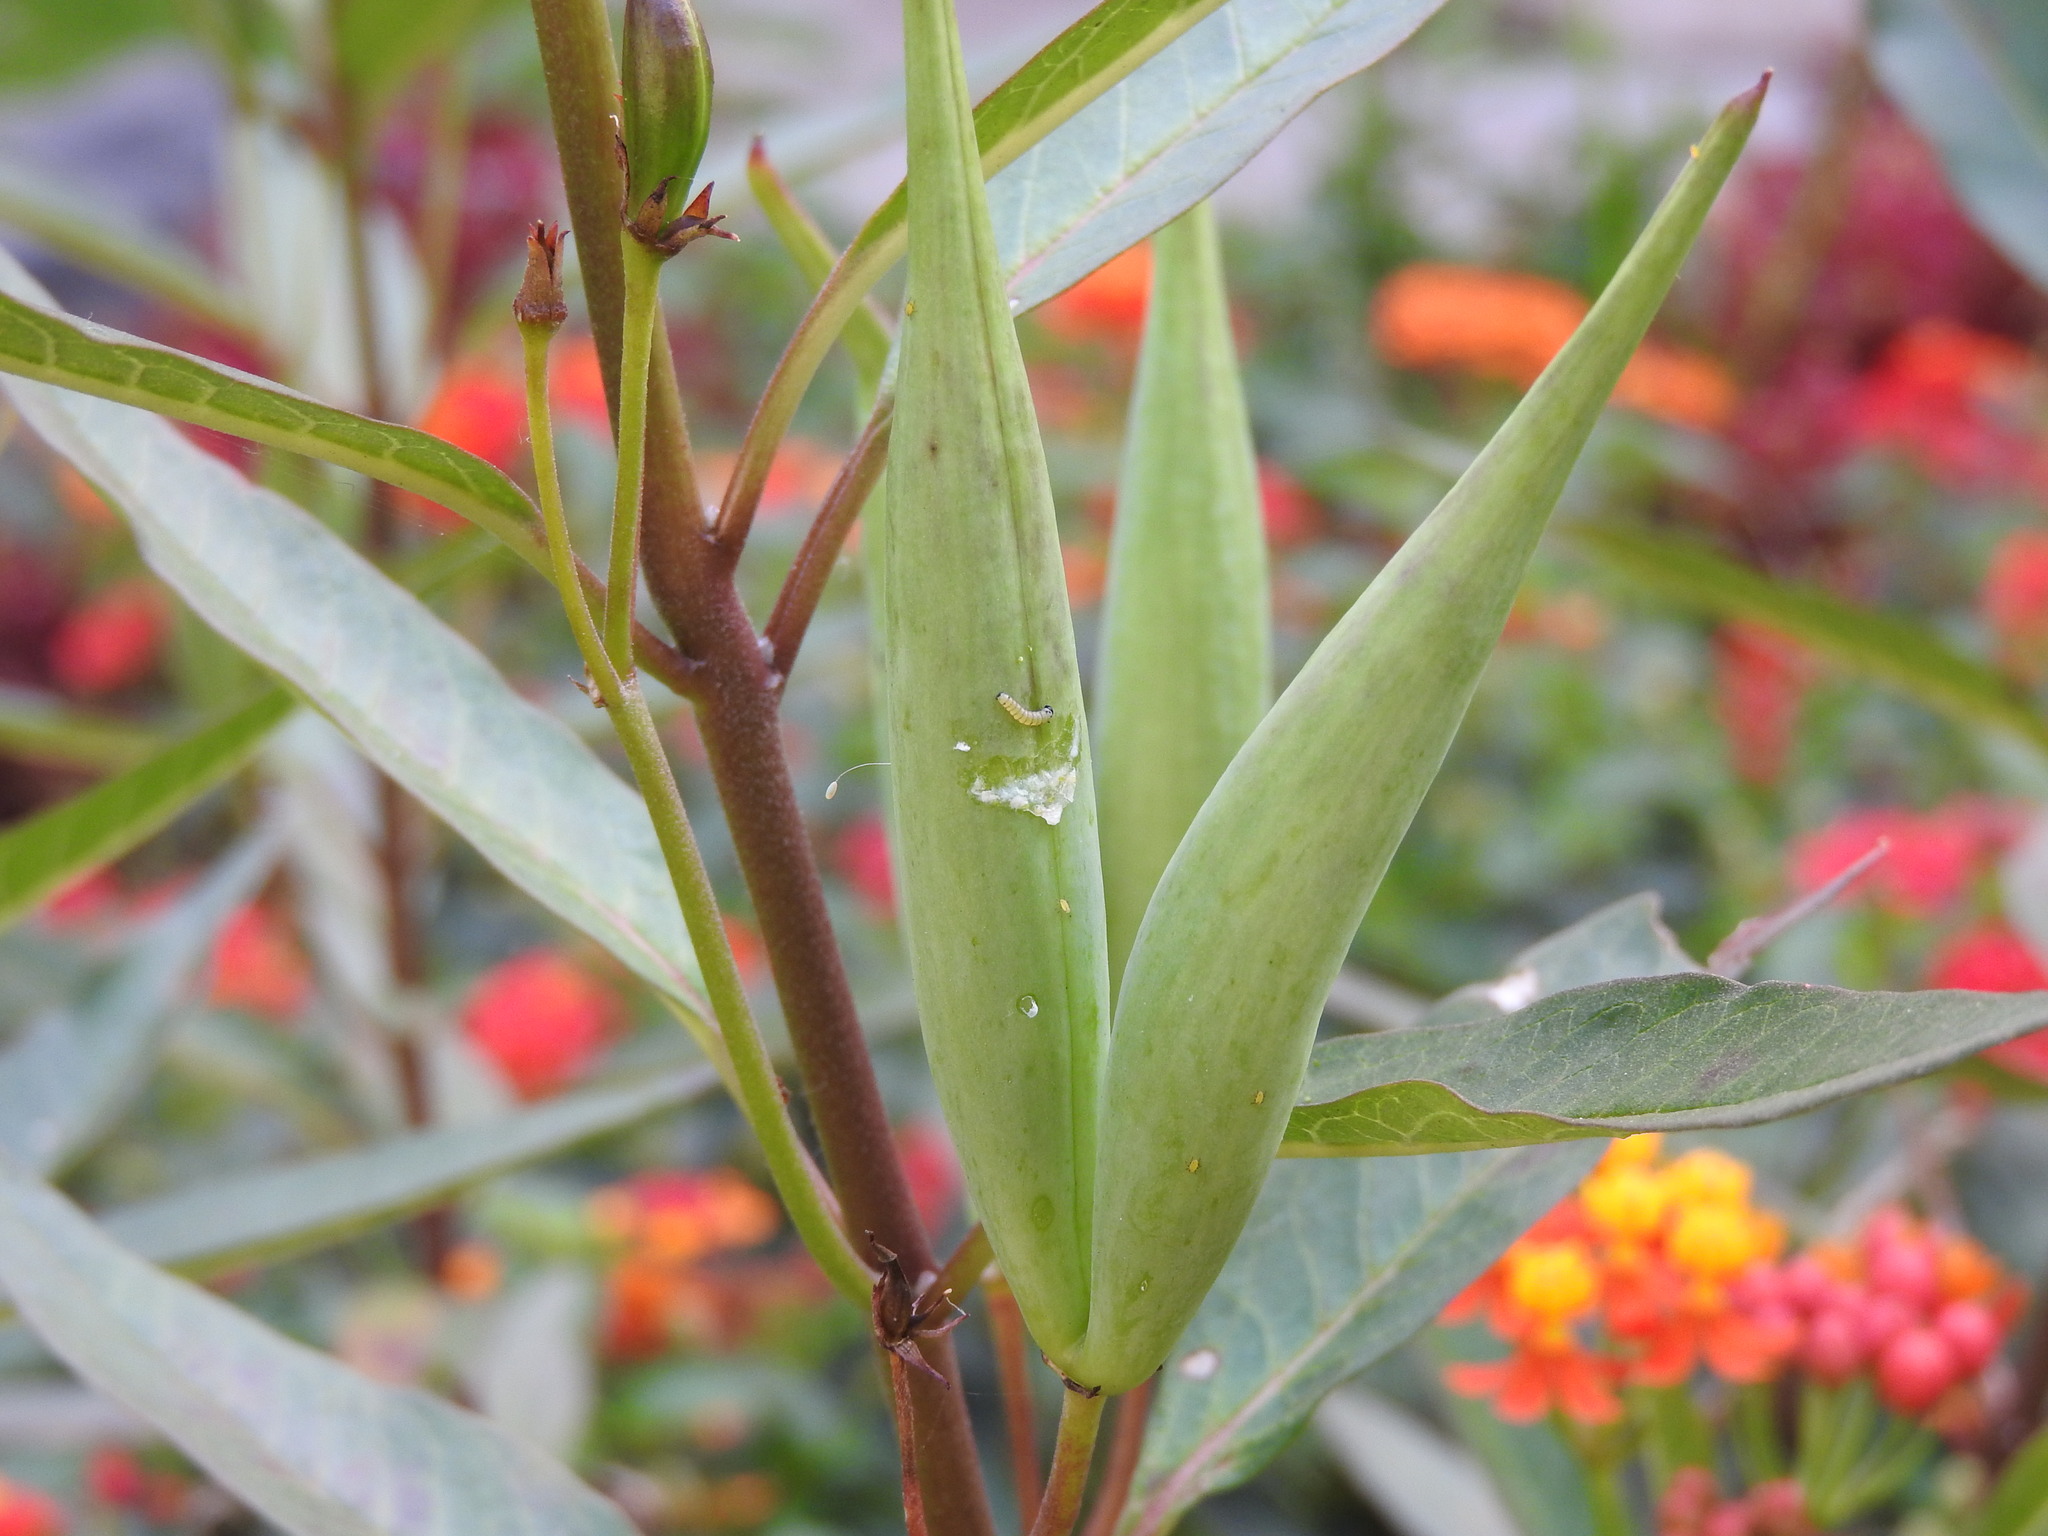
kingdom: Animalia
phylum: Arthropoda
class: Insecta
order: Lepidoptera
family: Nymphalidae
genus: Danaus
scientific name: Danaus plexippus
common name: Monarch
